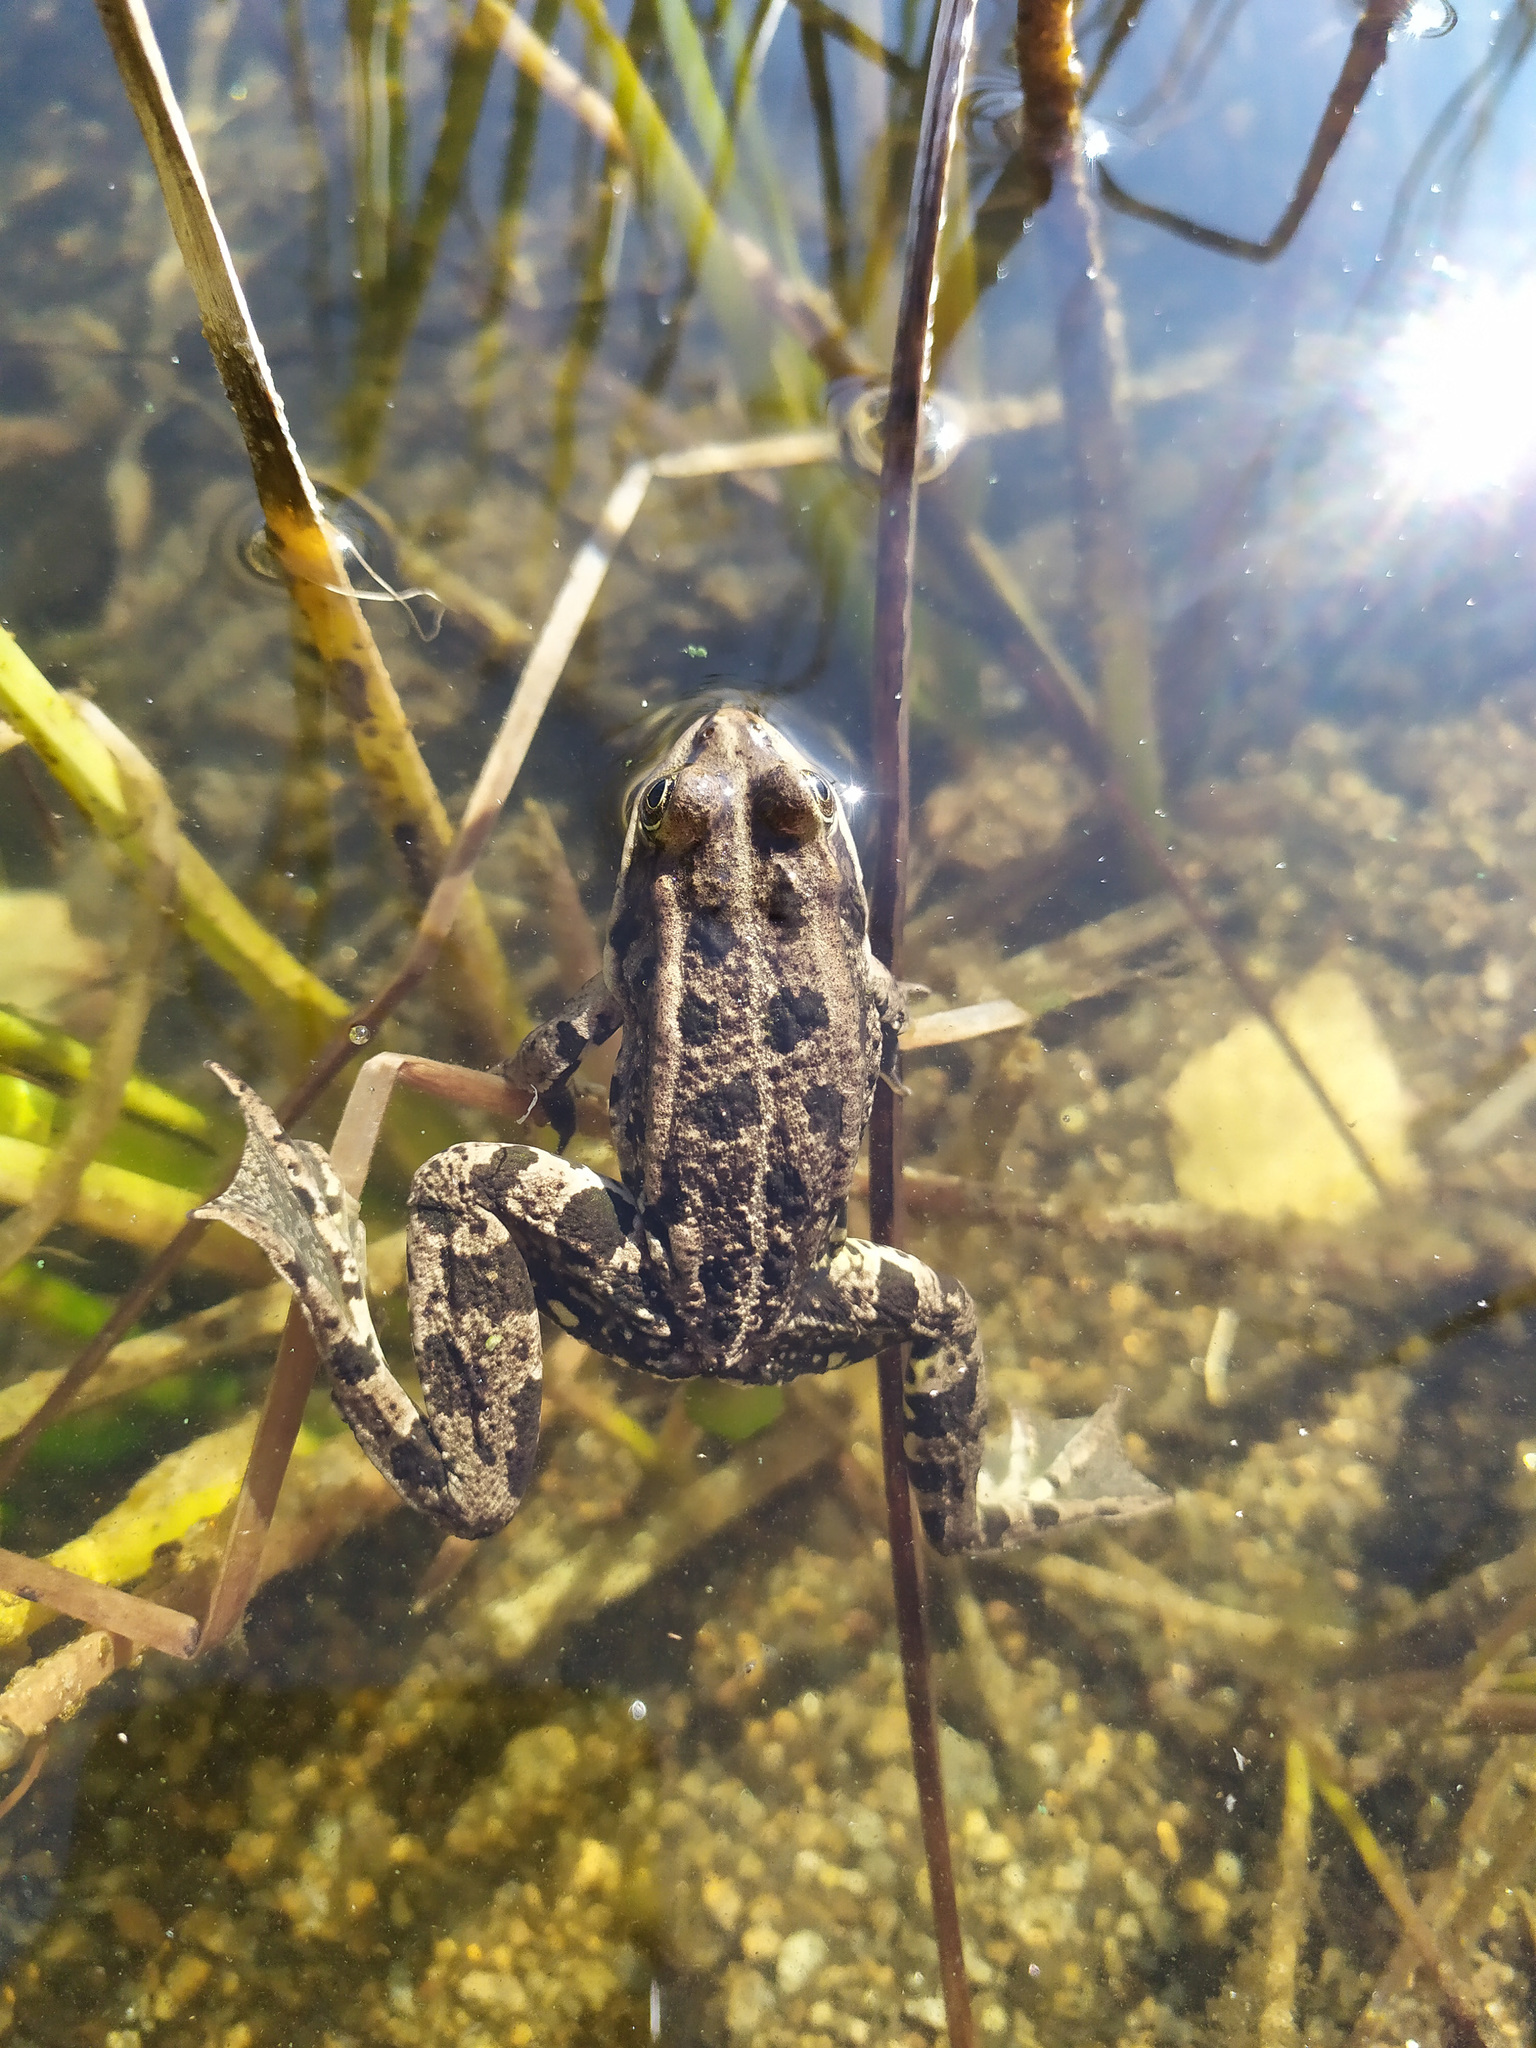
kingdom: Animalia
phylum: Chordata
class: Amphibia
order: Anura
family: Ranidae
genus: Pelophylax
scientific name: Pelophylax ridibundus
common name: Marsh frog
